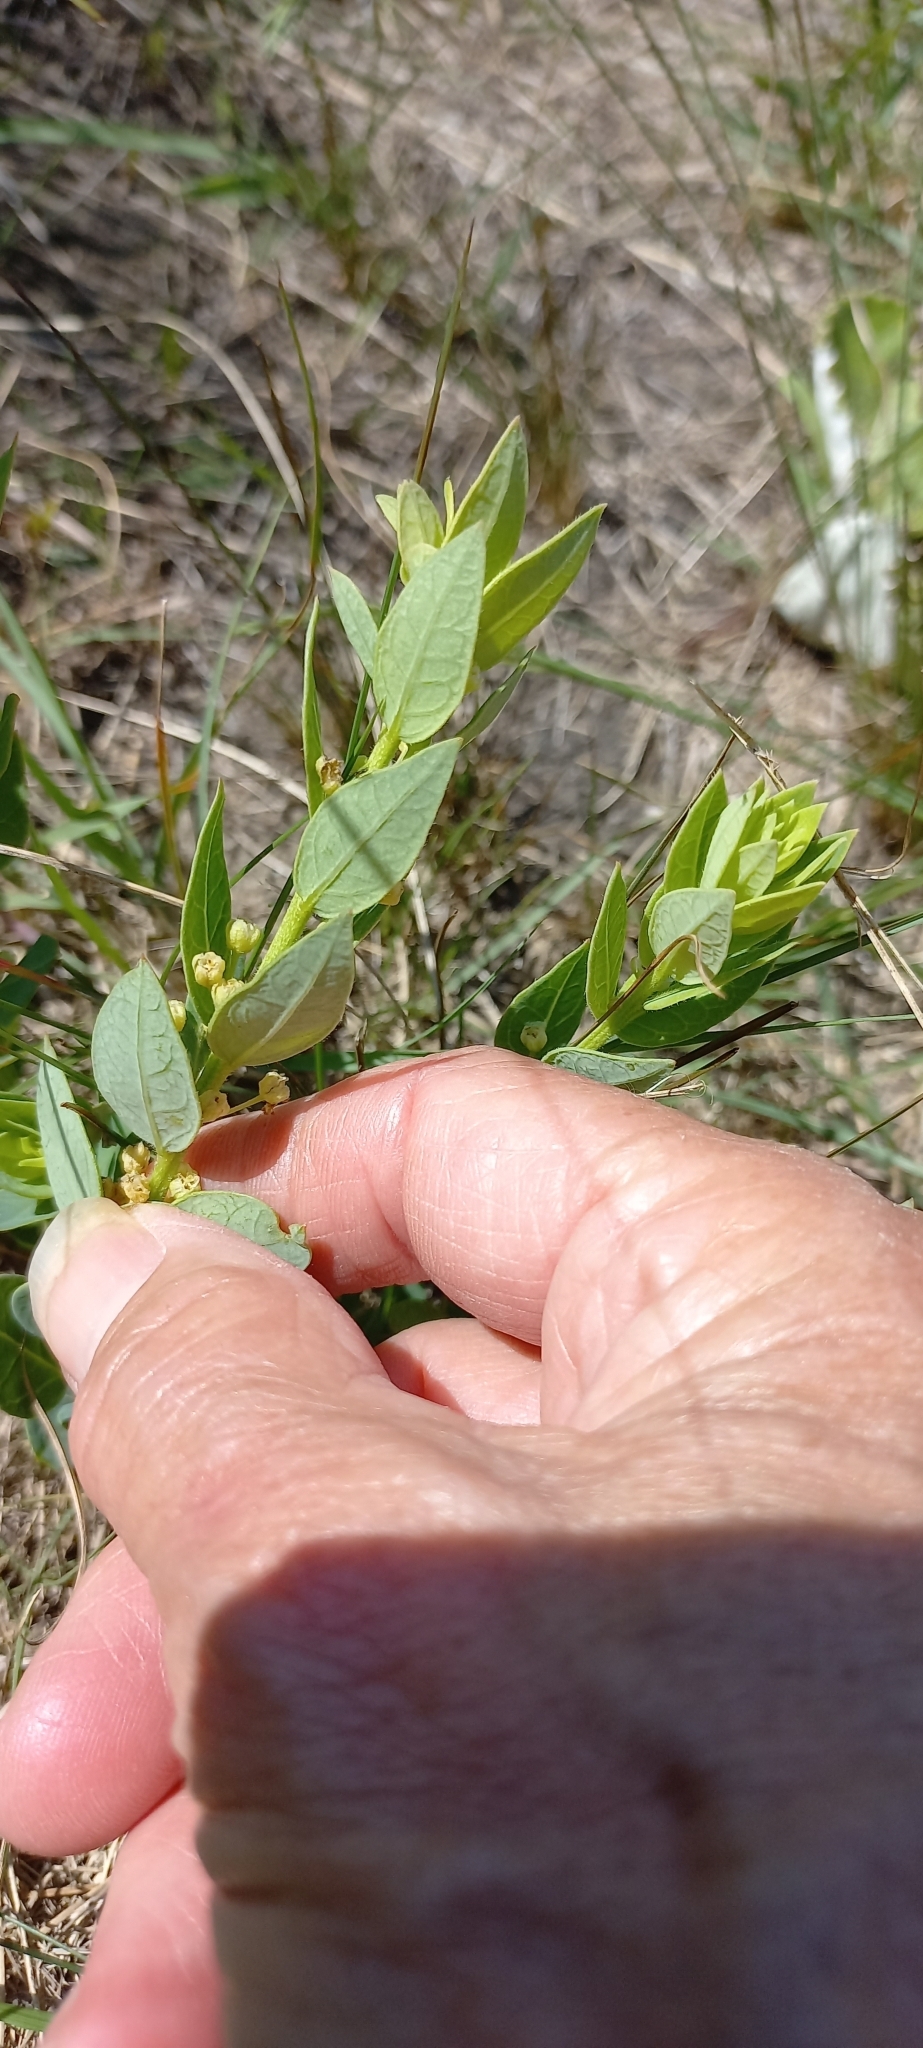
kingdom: Plantae
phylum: Tracheophyta
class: Magnoliopsida
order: Malpighiales
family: Peraceae
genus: Clutia
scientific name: Clutia cordata
